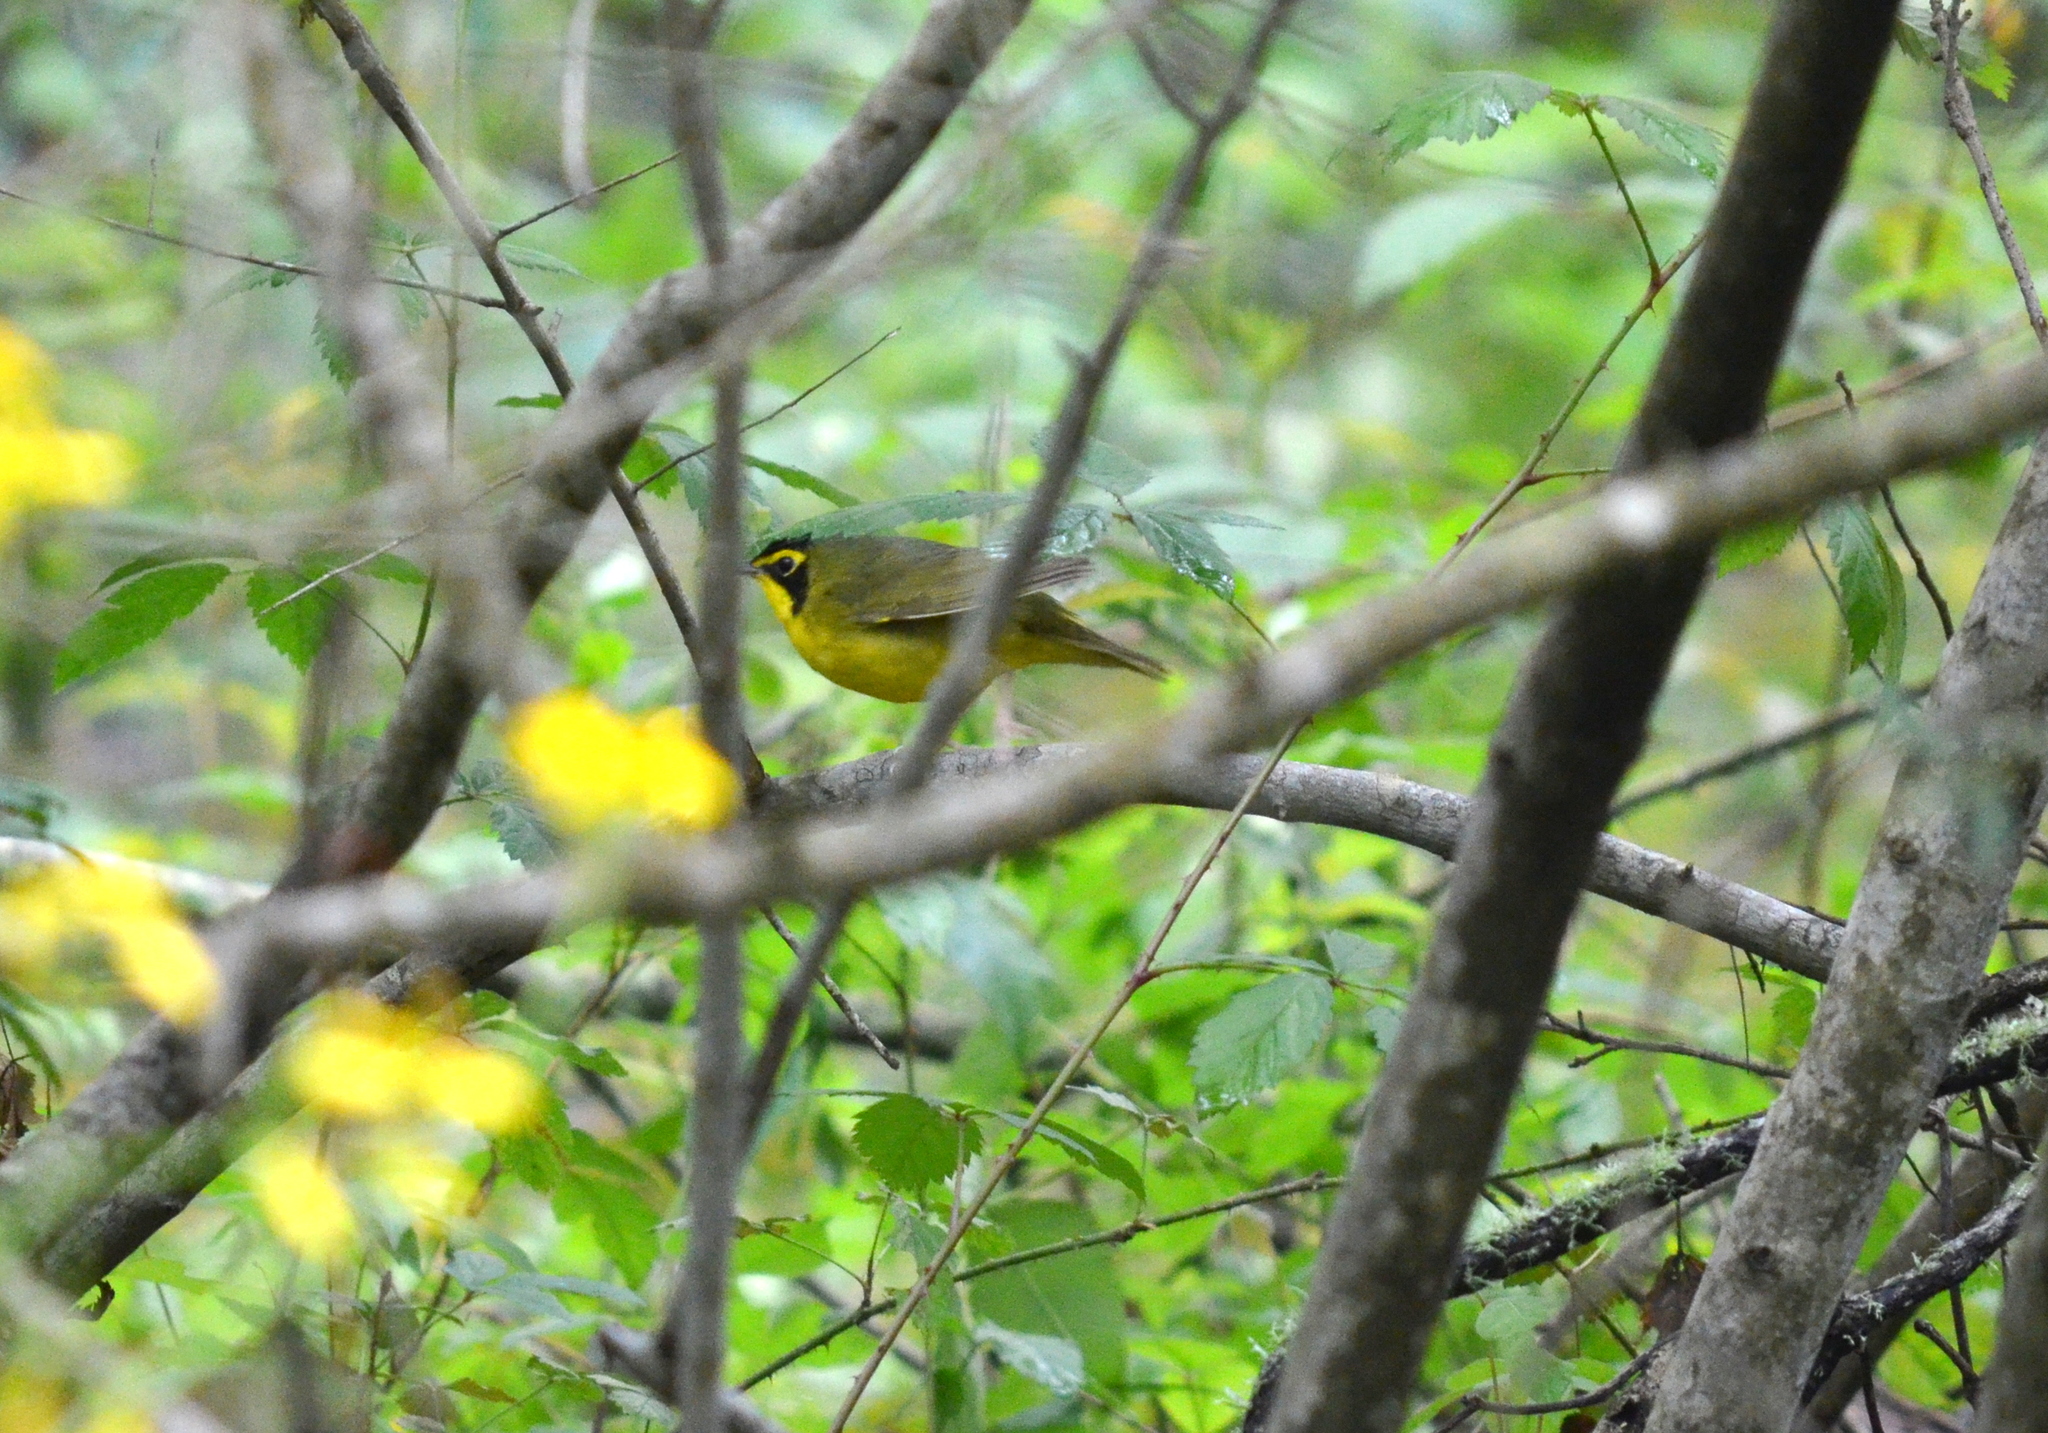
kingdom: Animalia
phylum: Chordata
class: Aves
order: Passeriformes
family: Parulidae
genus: Geothlypis
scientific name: Geothlypis formosa
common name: Kentucky warbler
